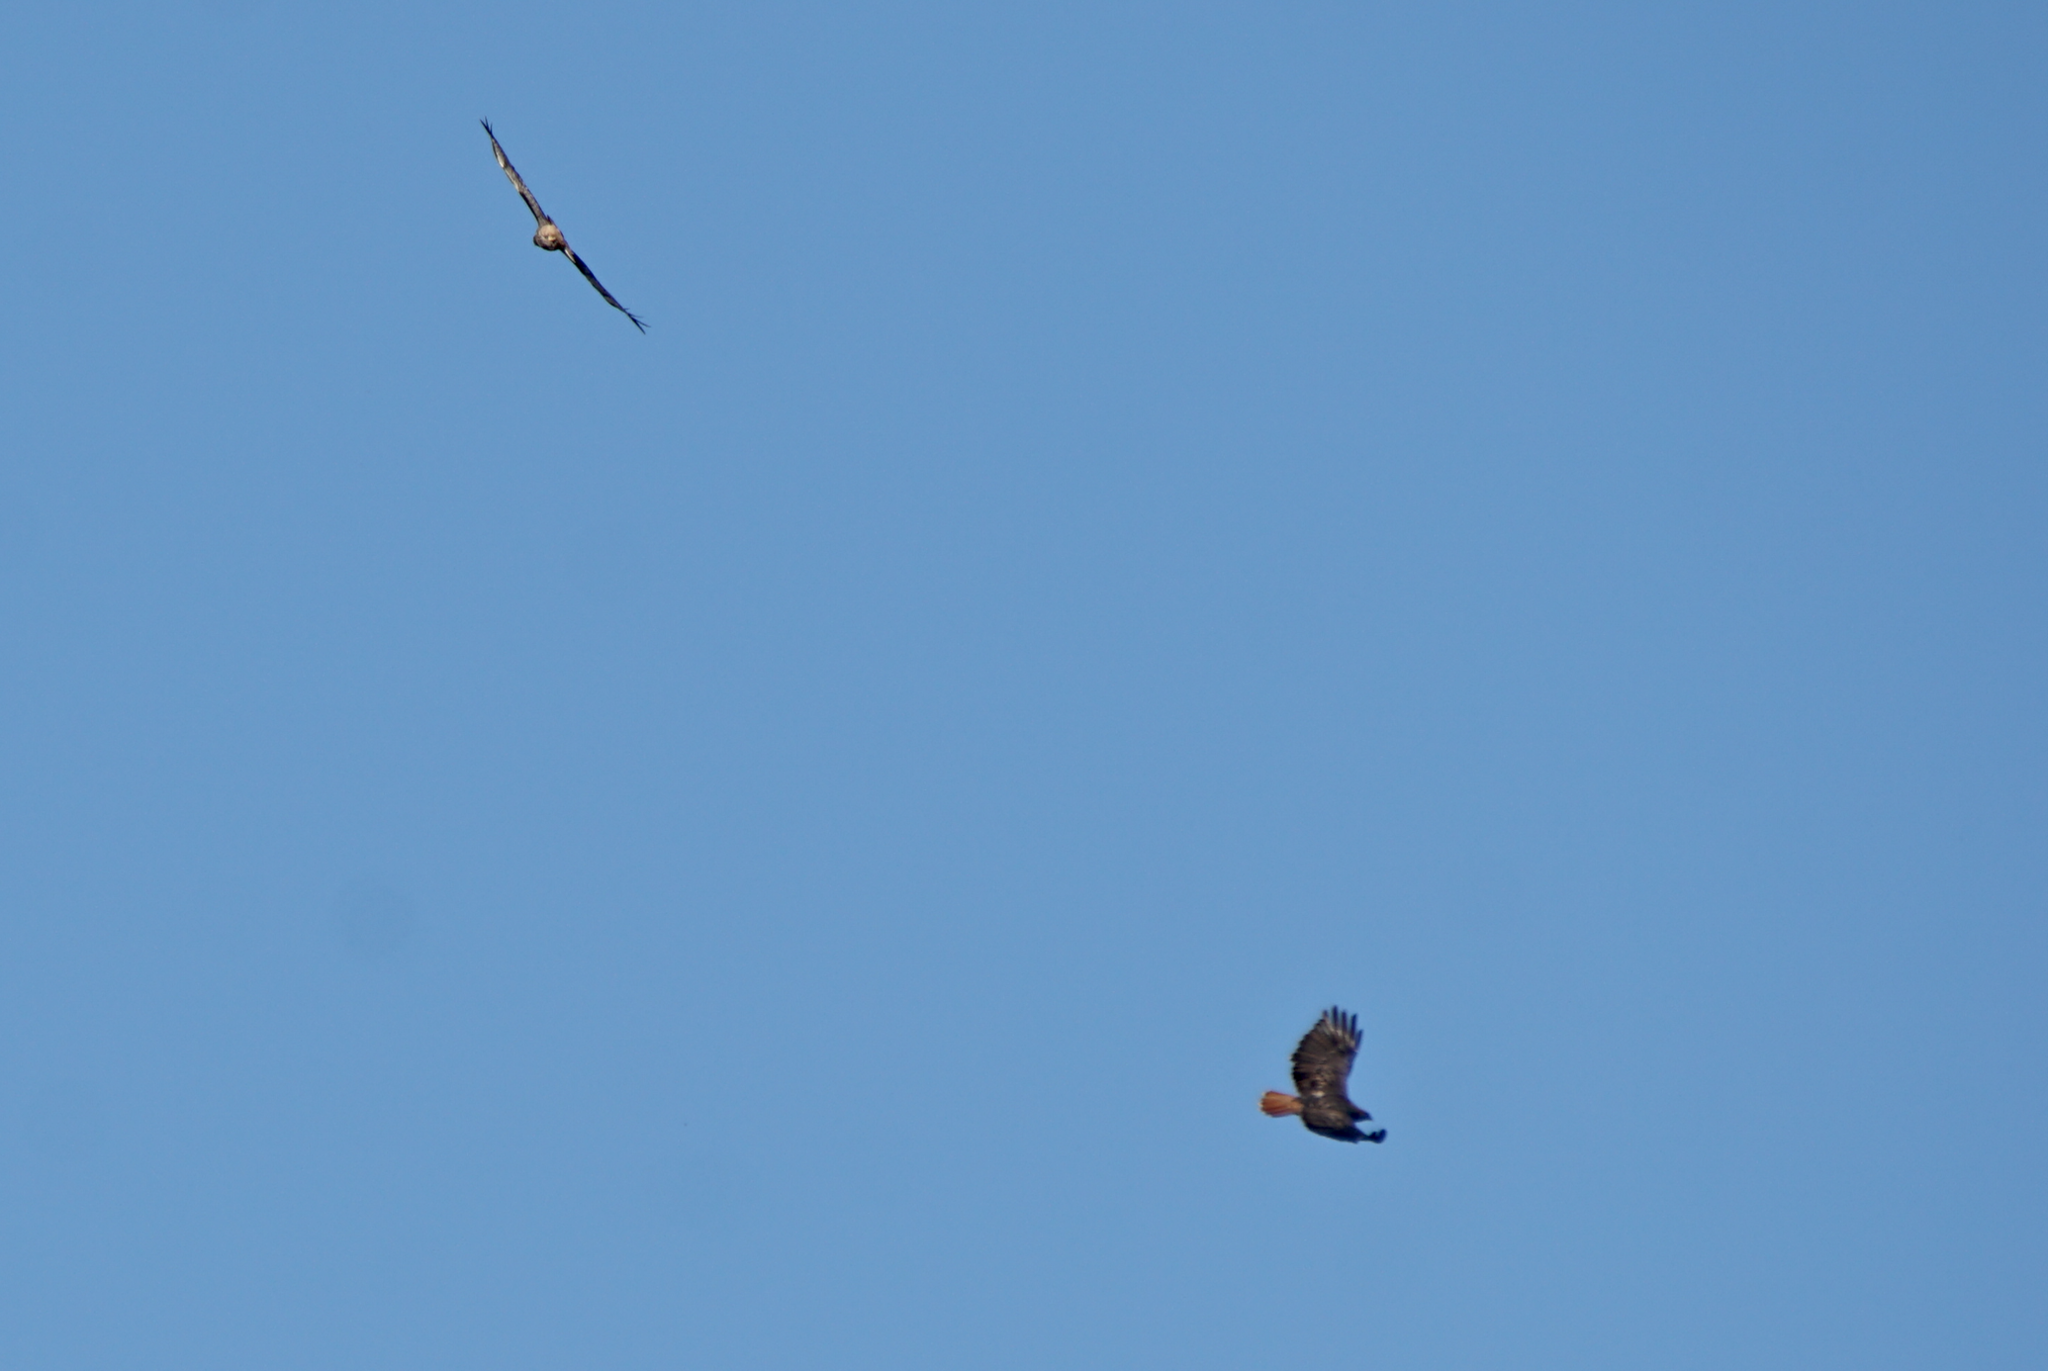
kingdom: Animalia
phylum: Chordata
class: Aves
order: Accipitriformes
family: Accipitridae
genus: Buteo
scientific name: Buteo jamaicensis
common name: Red-tailed hawk
